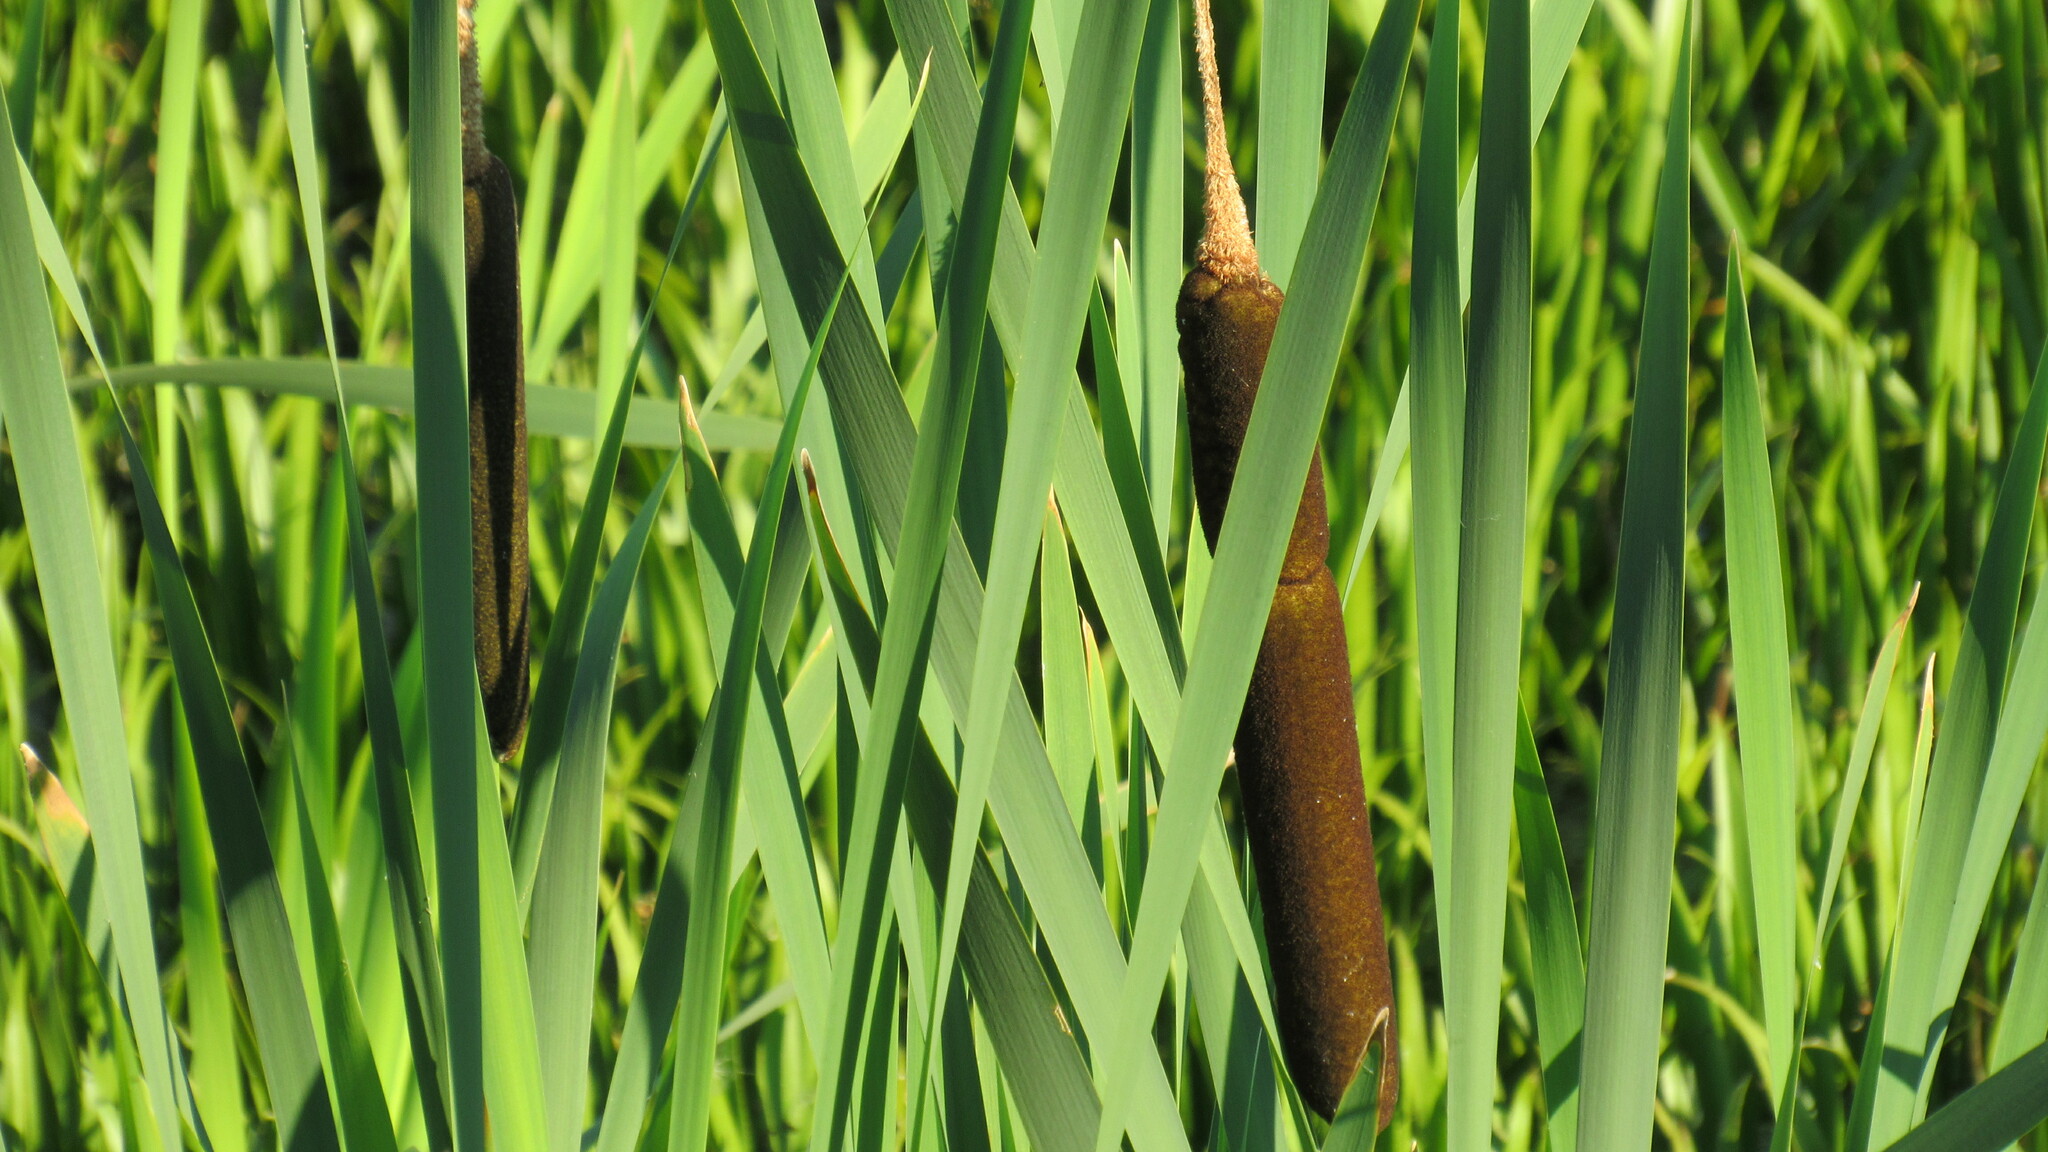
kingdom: Plantae
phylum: Tracheophyta
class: Liliopsida
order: Poales
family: Typhaceae
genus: Typha
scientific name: Typha latifolia
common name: Broadleaf cattail
